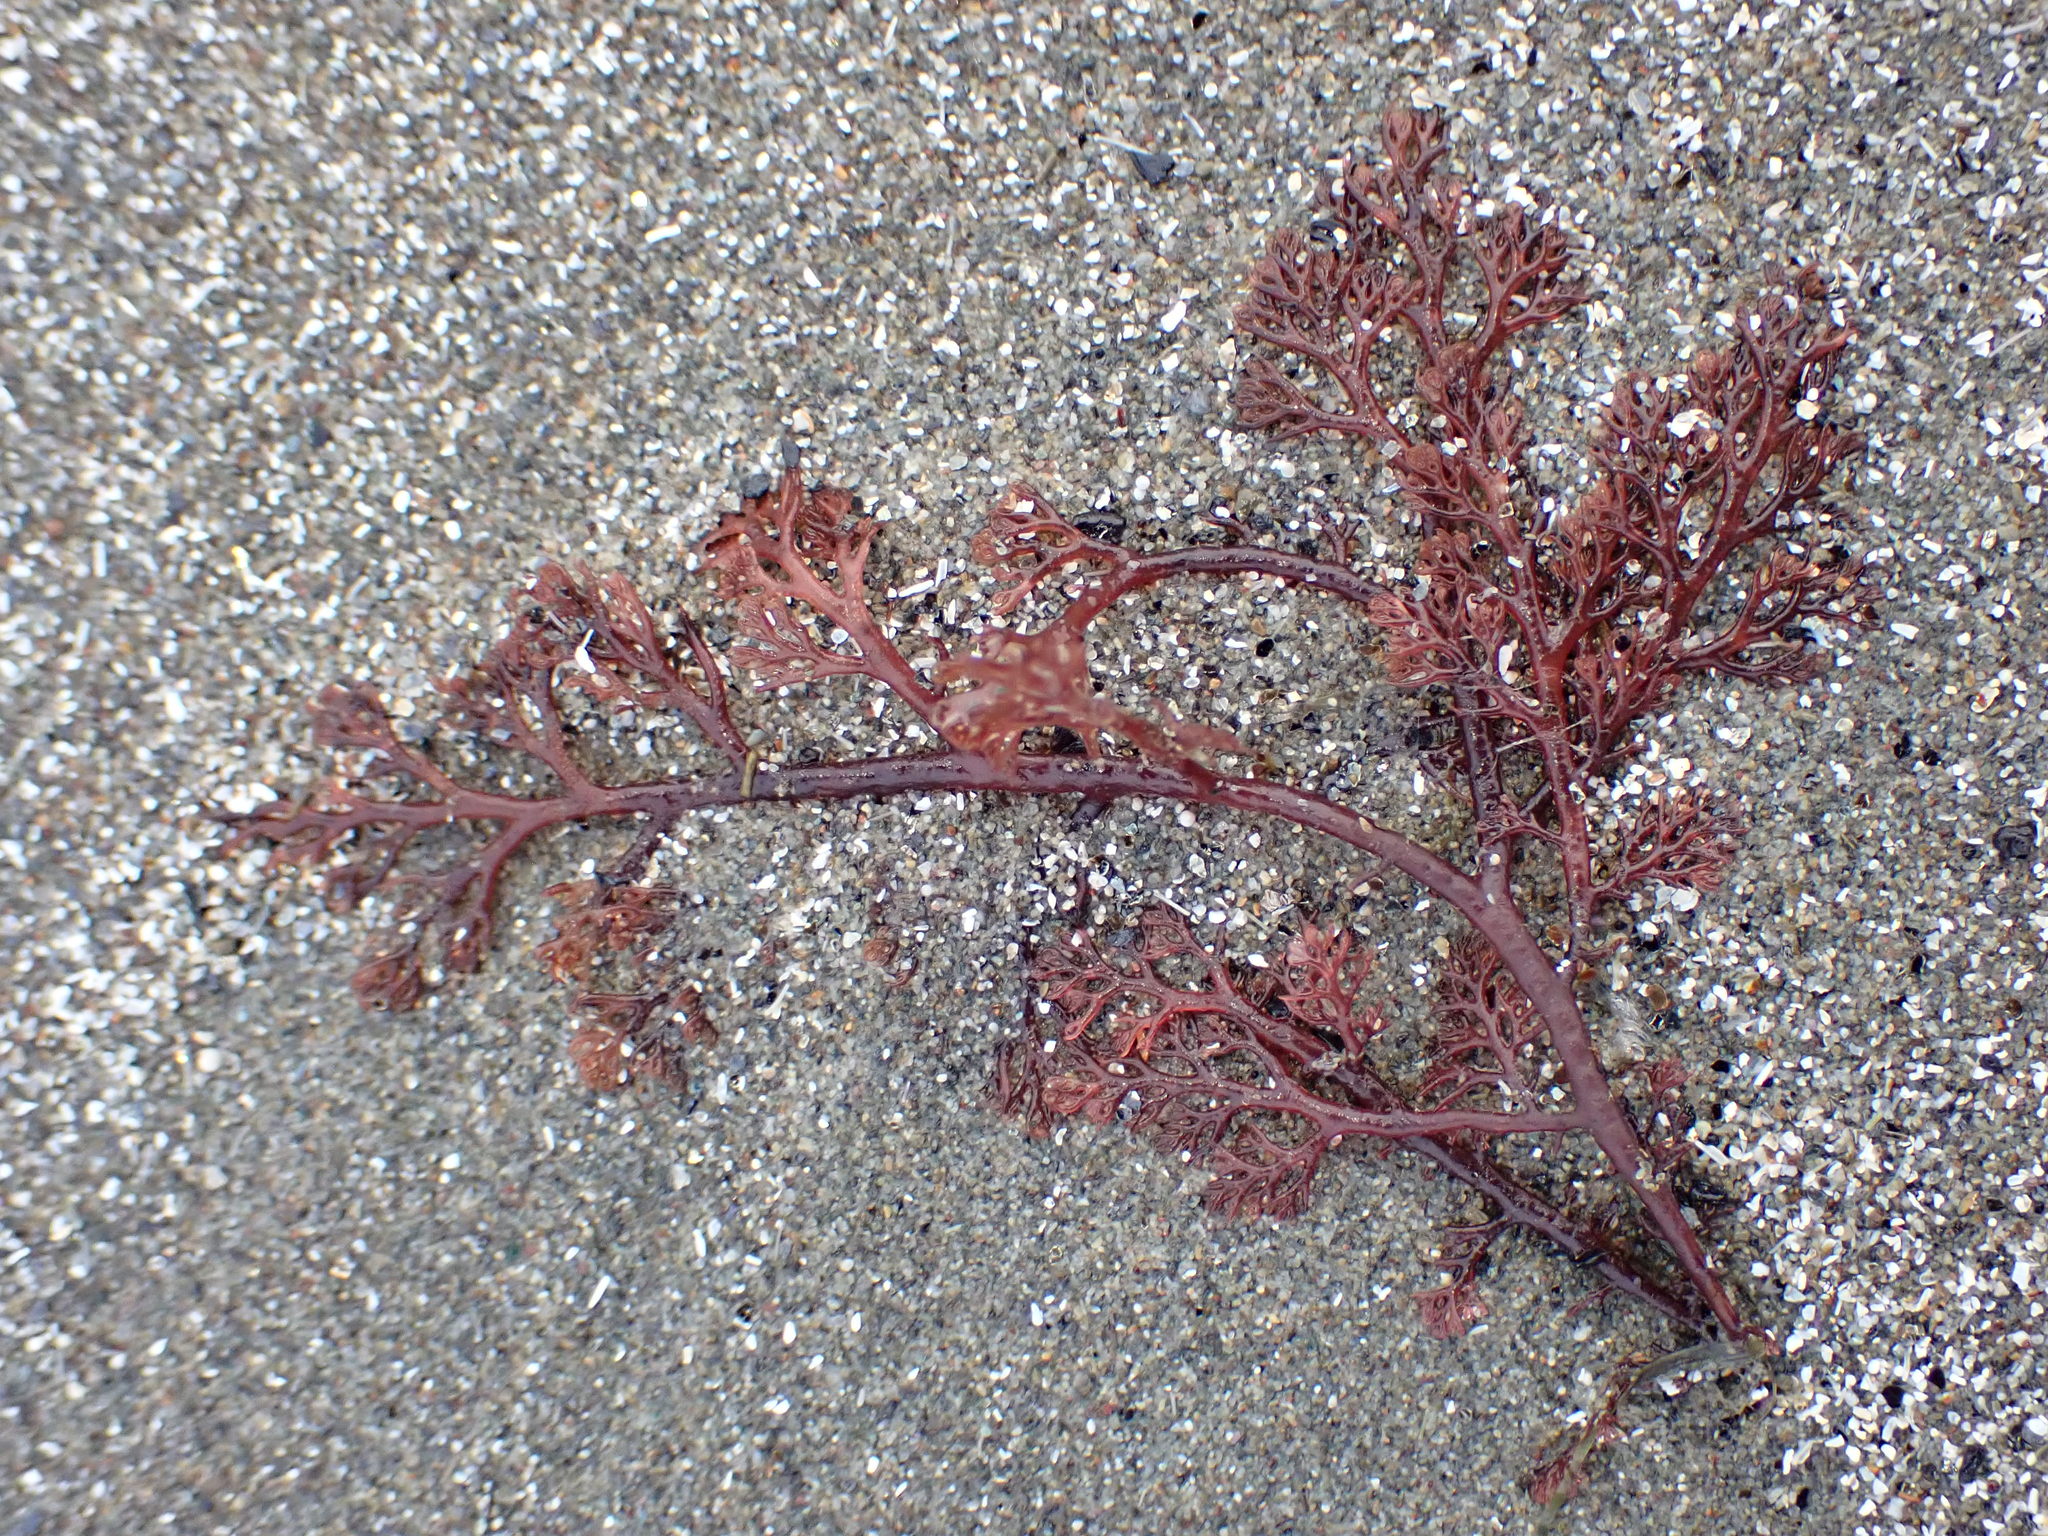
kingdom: Plantae
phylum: Rhodophyta
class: Florideophyceae
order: Ceramiales
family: Ceramiaceae
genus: Microcladia
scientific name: Microcladia coulteri
